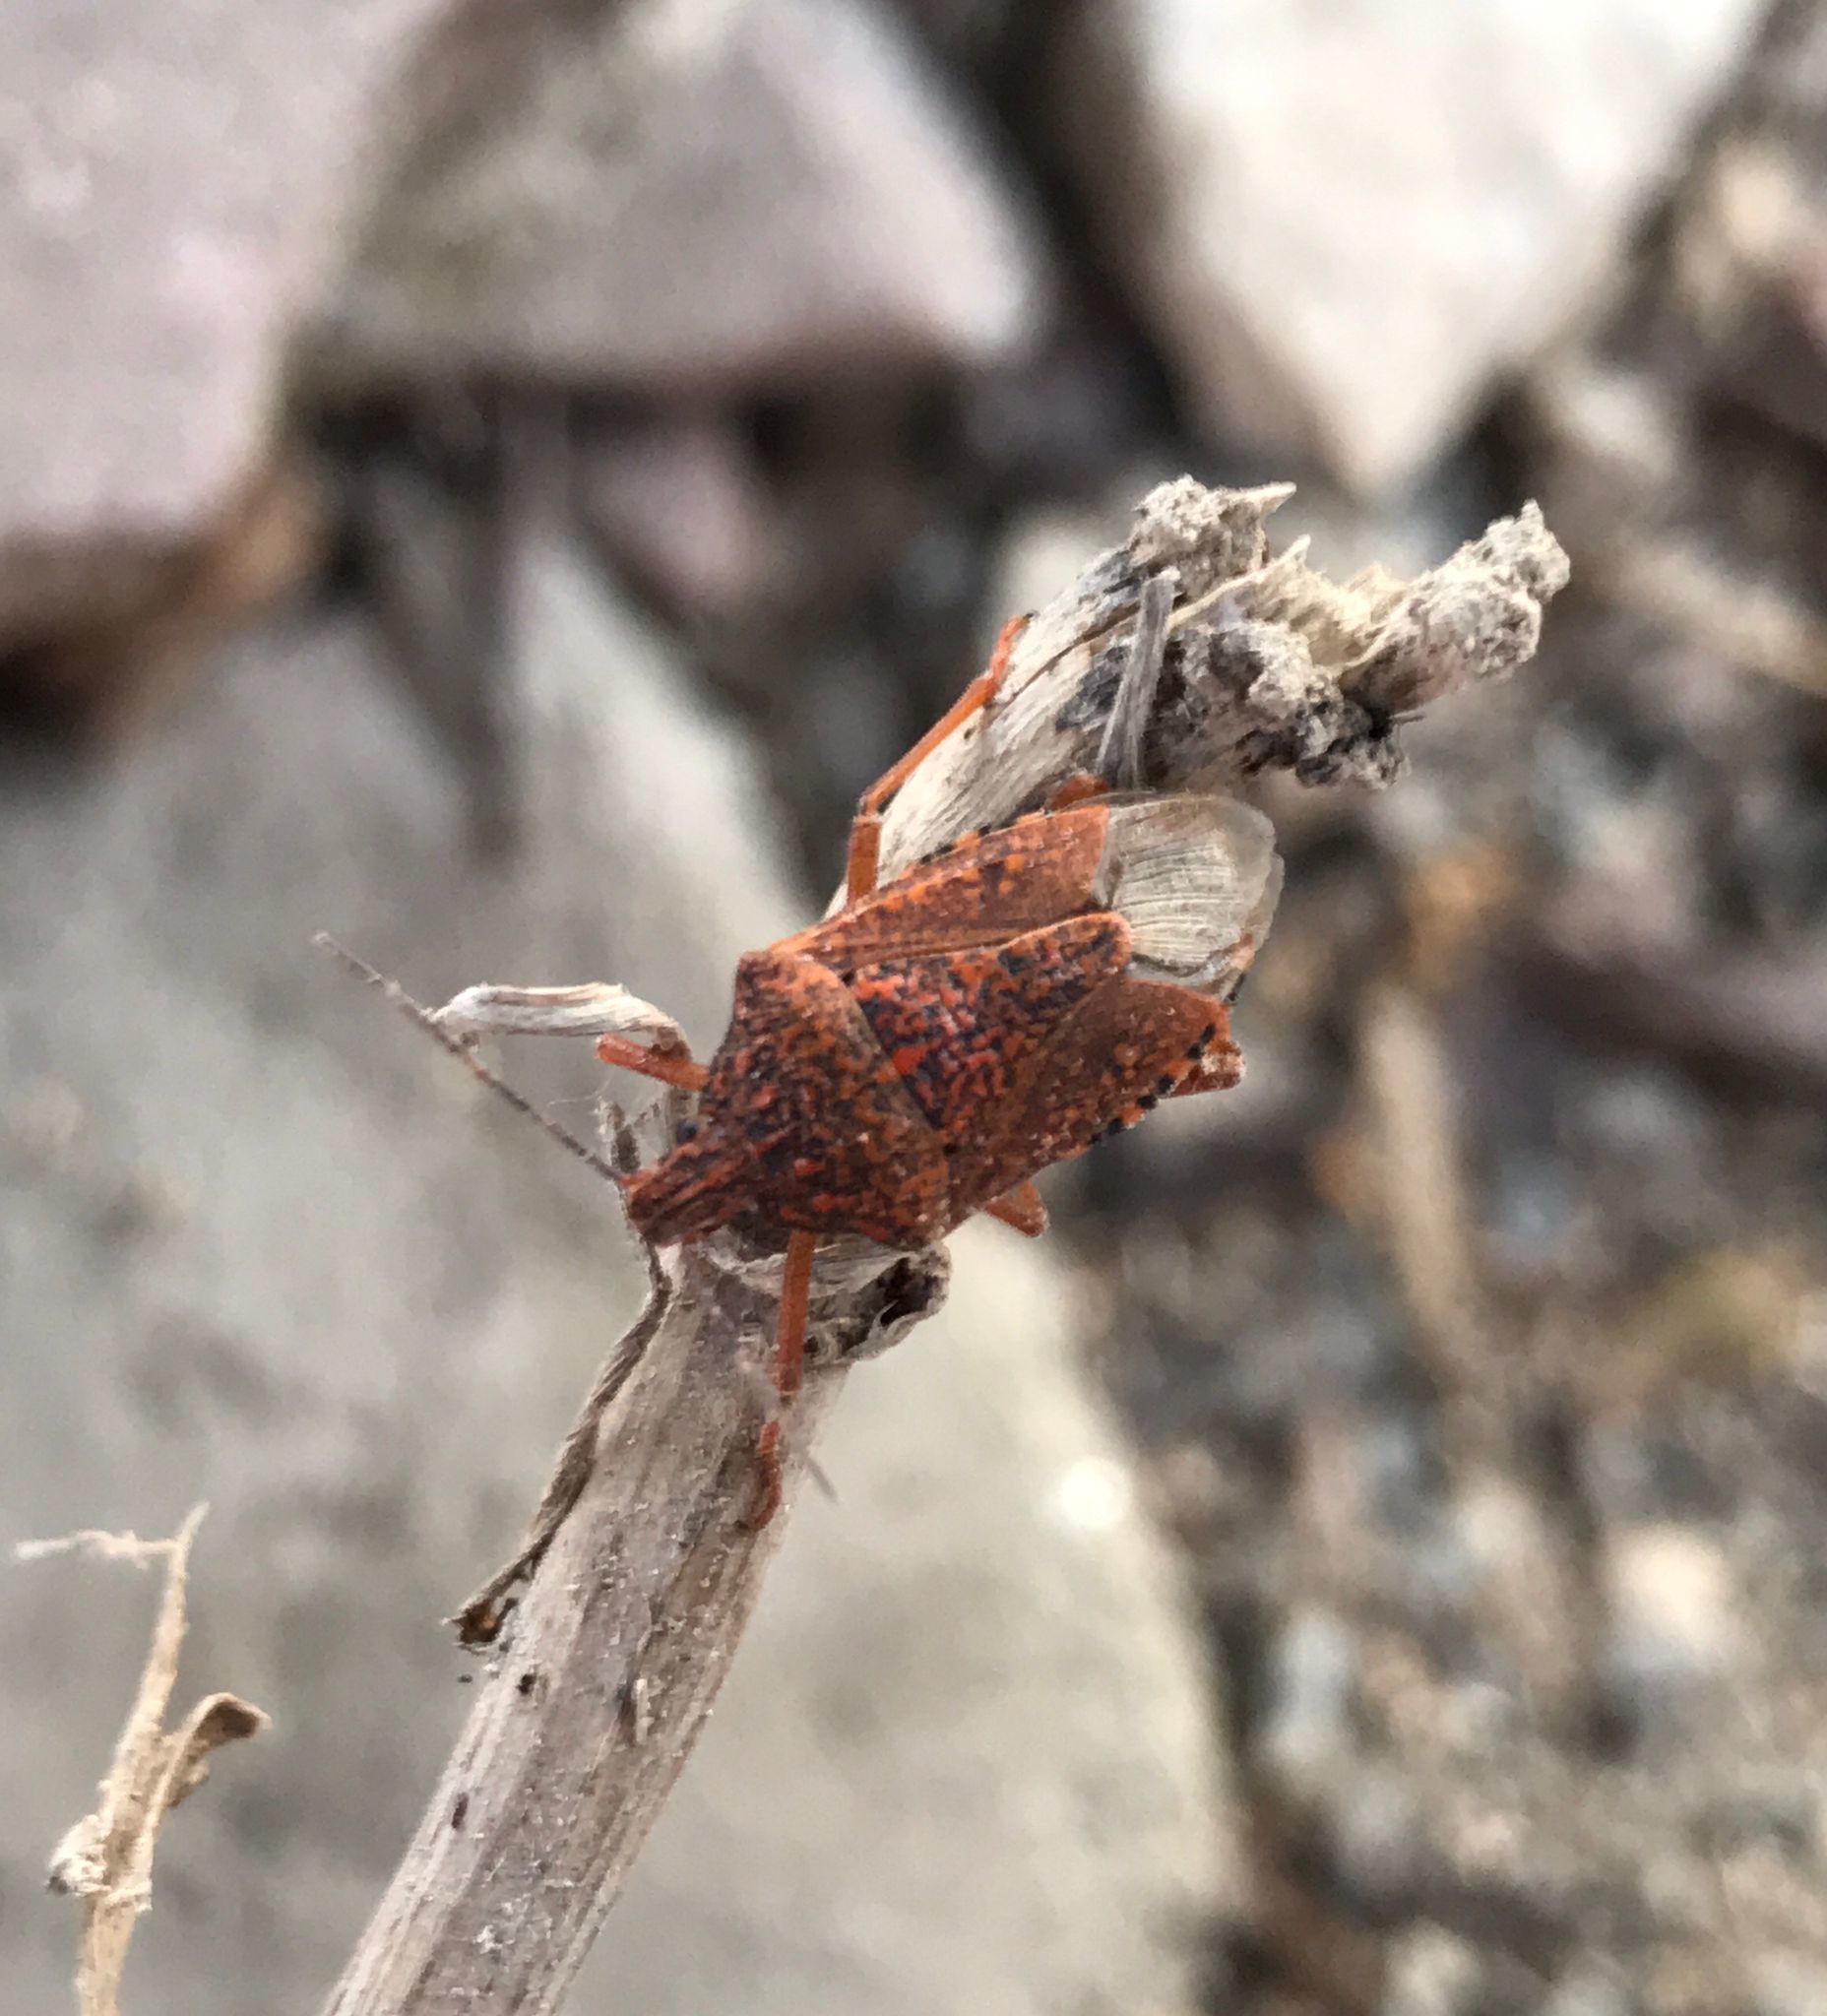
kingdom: Animalia
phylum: Arthropoda
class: Insecta
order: Hemiptera
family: Pentatomidae
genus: Apodiphus
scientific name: Apodiphus
